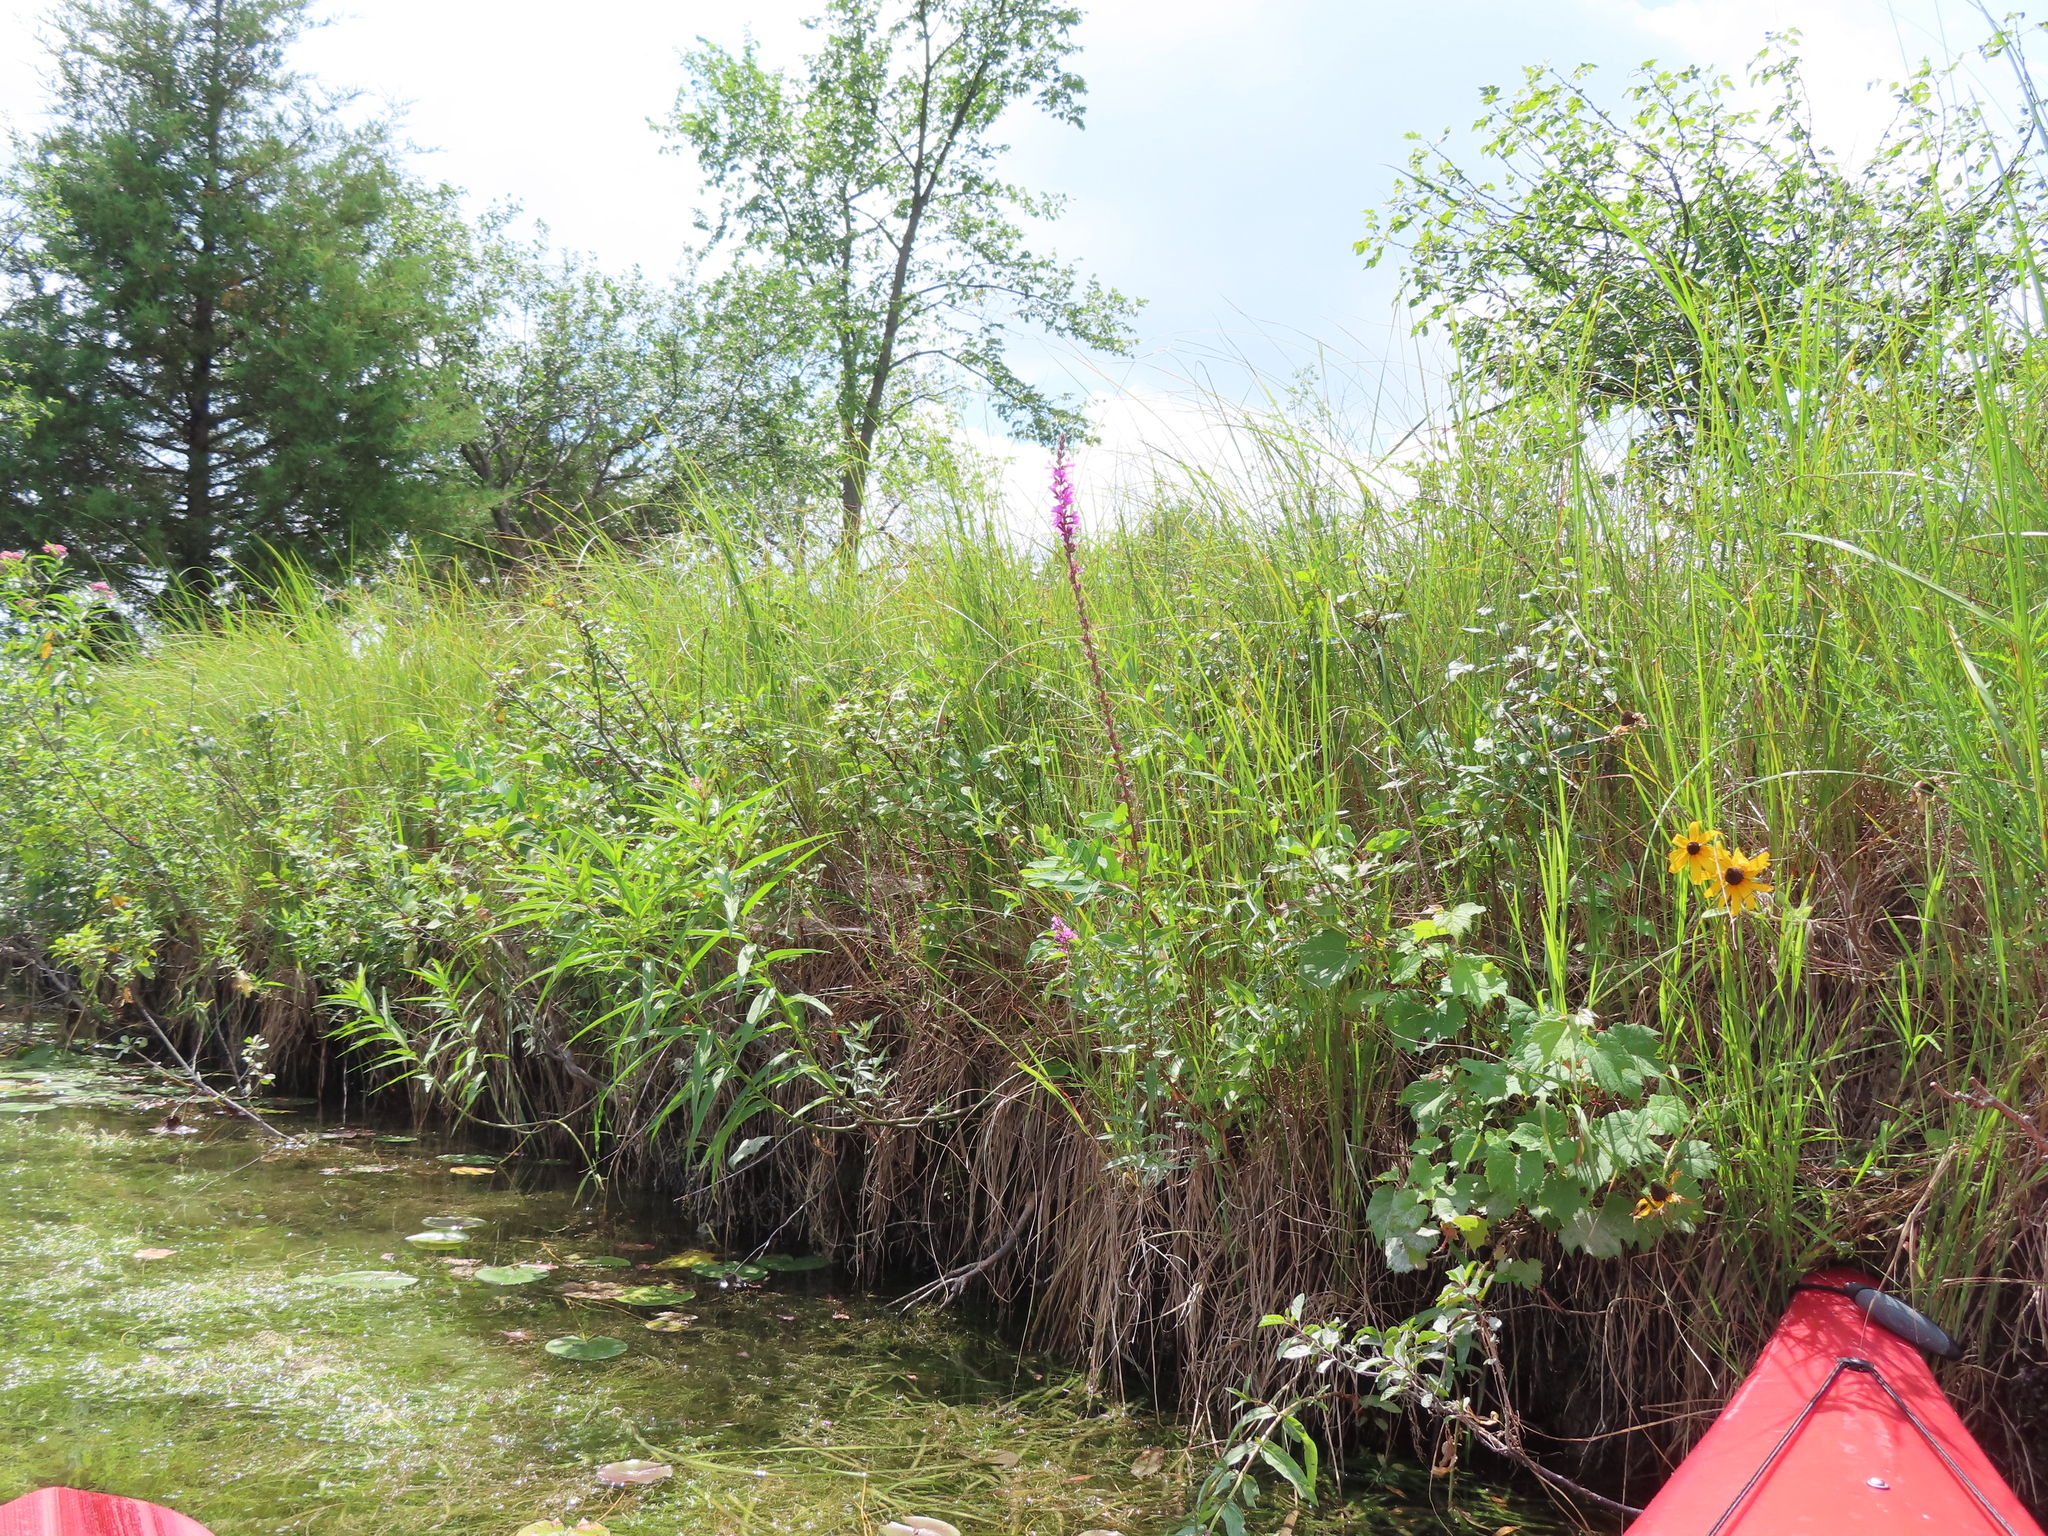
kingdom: Plantae
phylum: Tracheophyta
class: Magnoliopsida
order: Myrtales
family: Lythraceae
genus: Lythrum
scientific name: Lythrum salicaria
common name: Purple loosestrife
